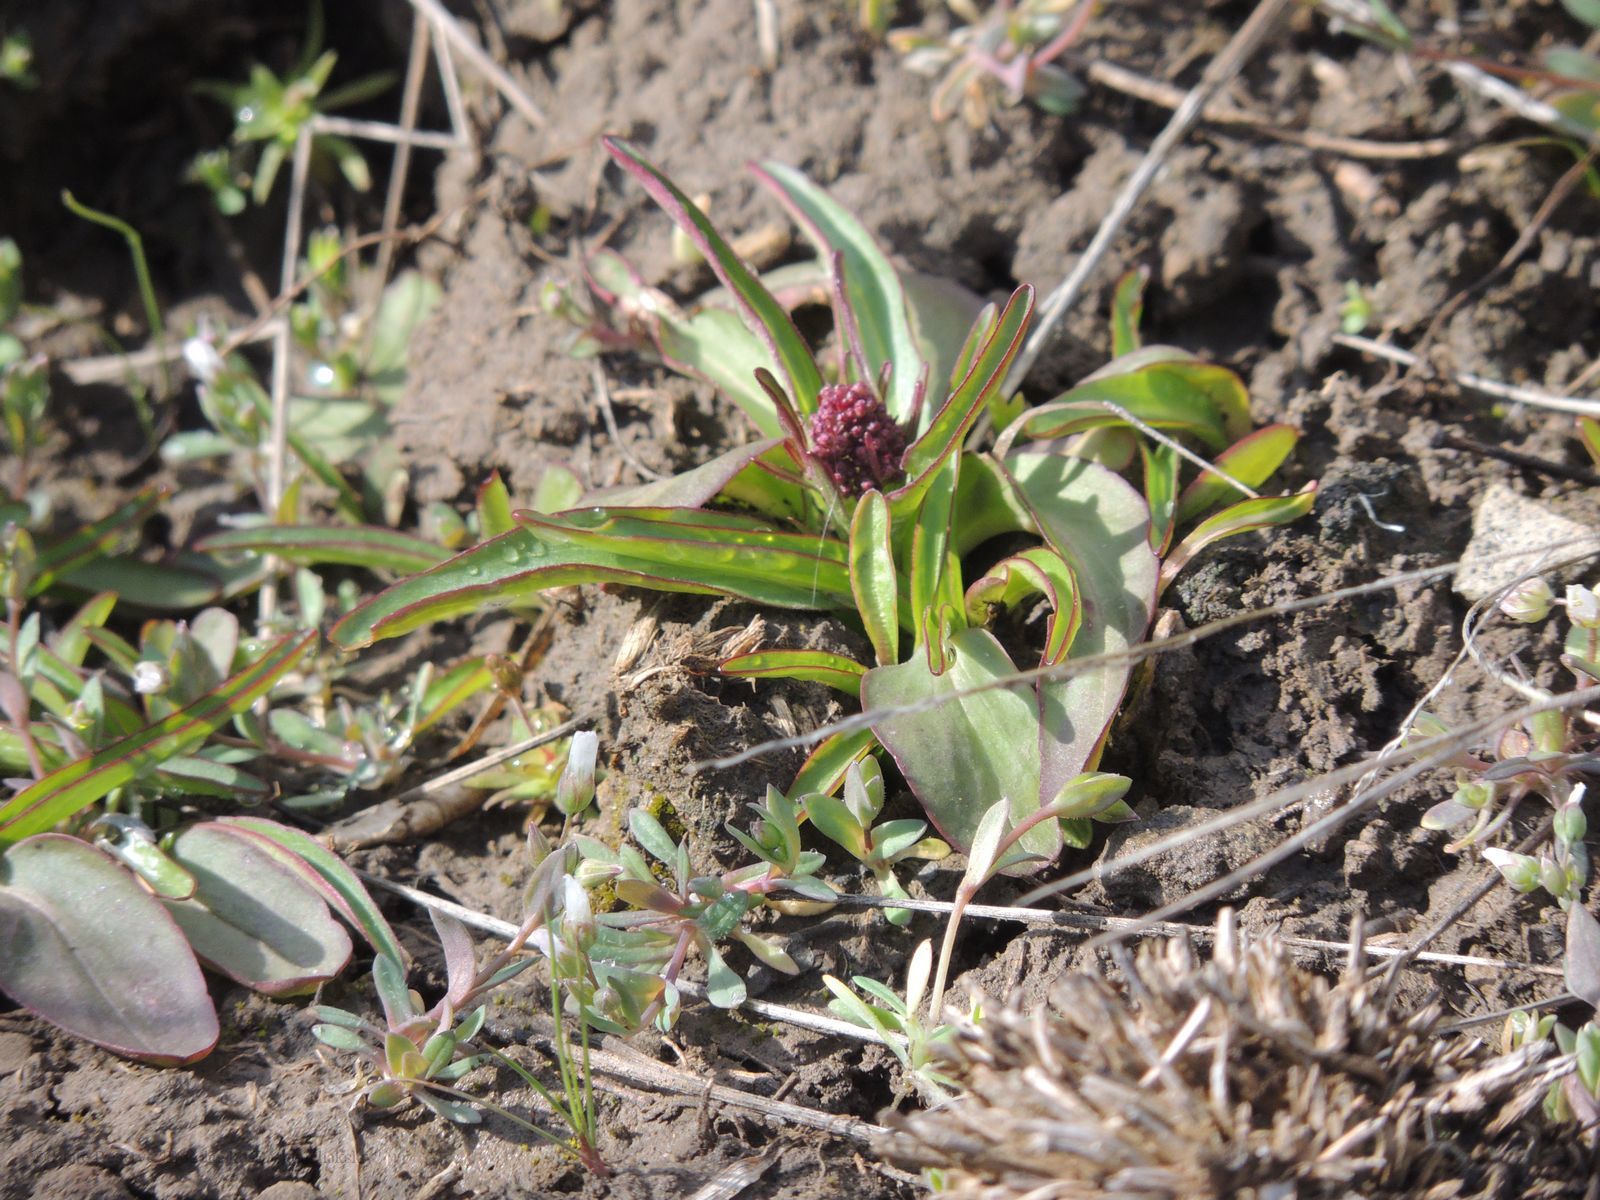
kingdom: Plantae
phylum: Tracheophyta
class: Magnoliopsida
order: Dipsacales
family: Caprifoliaceae
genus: Valeriana
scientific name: Valeriana tuberosa
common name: Tuberous valerian
